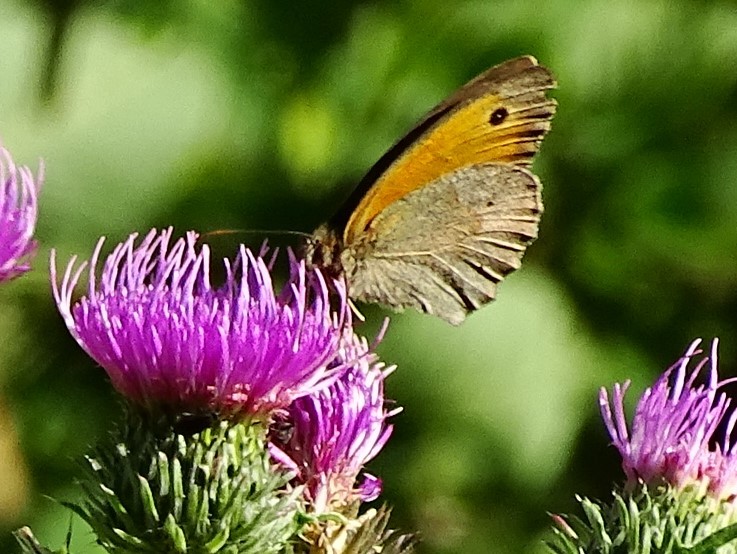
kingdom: Animalia
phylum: Arthropoda
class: Insecta
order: Lepidoptera
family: Nymphalidae
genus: Maniola
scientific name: Maniola jurtina
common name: Meadow brown
